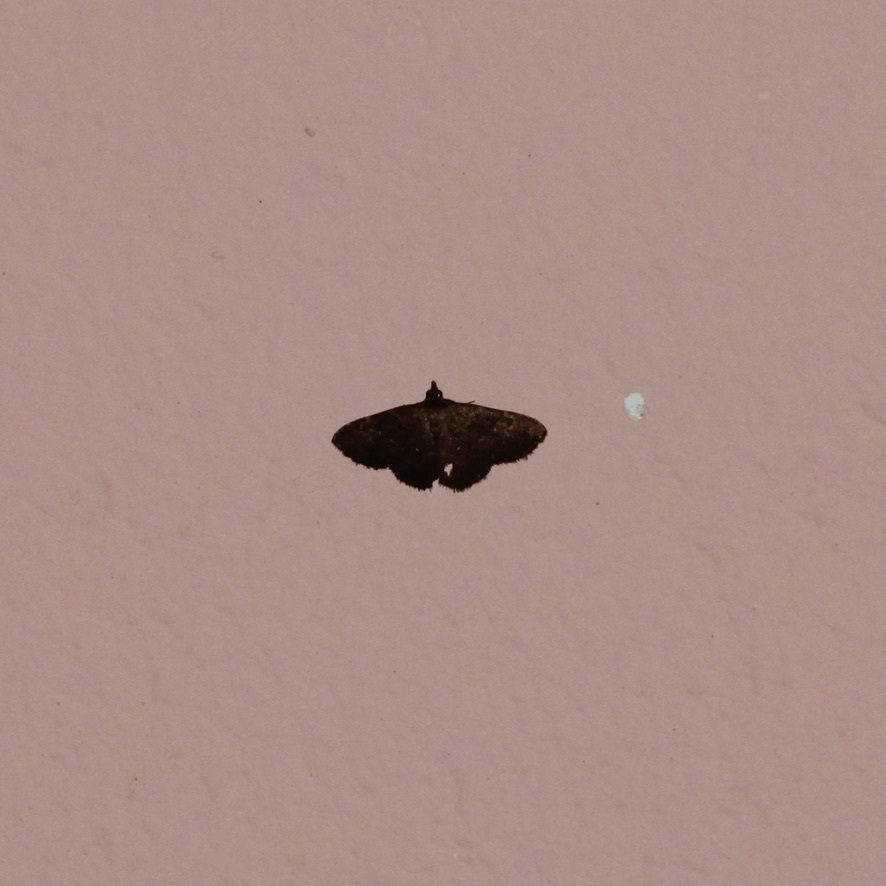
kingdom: Animalia
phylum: Arthropoda
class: Insecta
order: Lepidoptera
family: Erebidae
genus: Ostha
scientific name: Ostha coryphata
